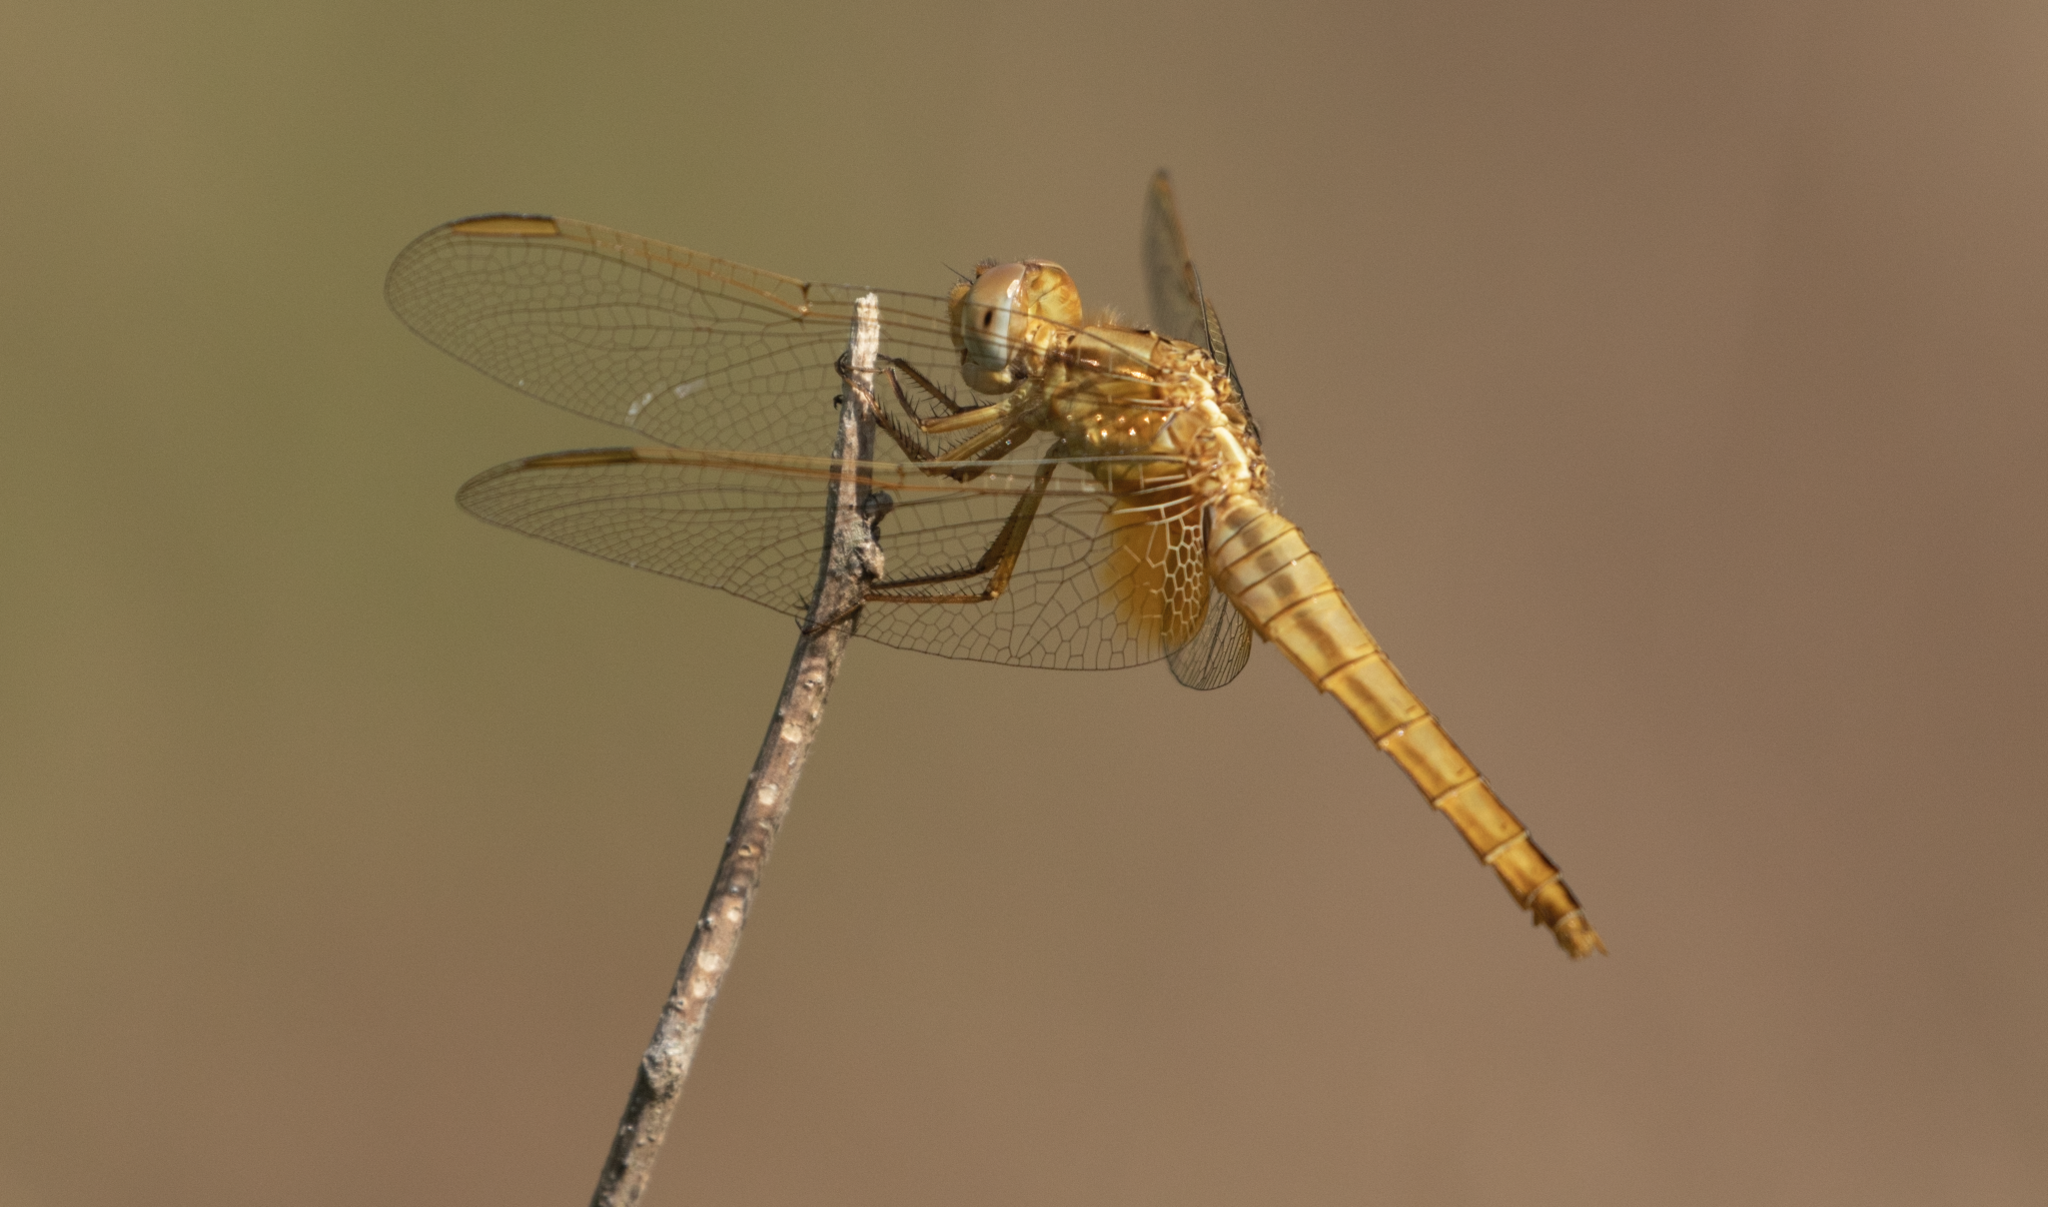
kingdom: Animalia
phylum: Arthropoda
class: Insecta
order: Odonata
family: Libellulidae
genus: Crocothemis
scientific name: Crocothemis erythraea
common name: Scarlet dragonfly
